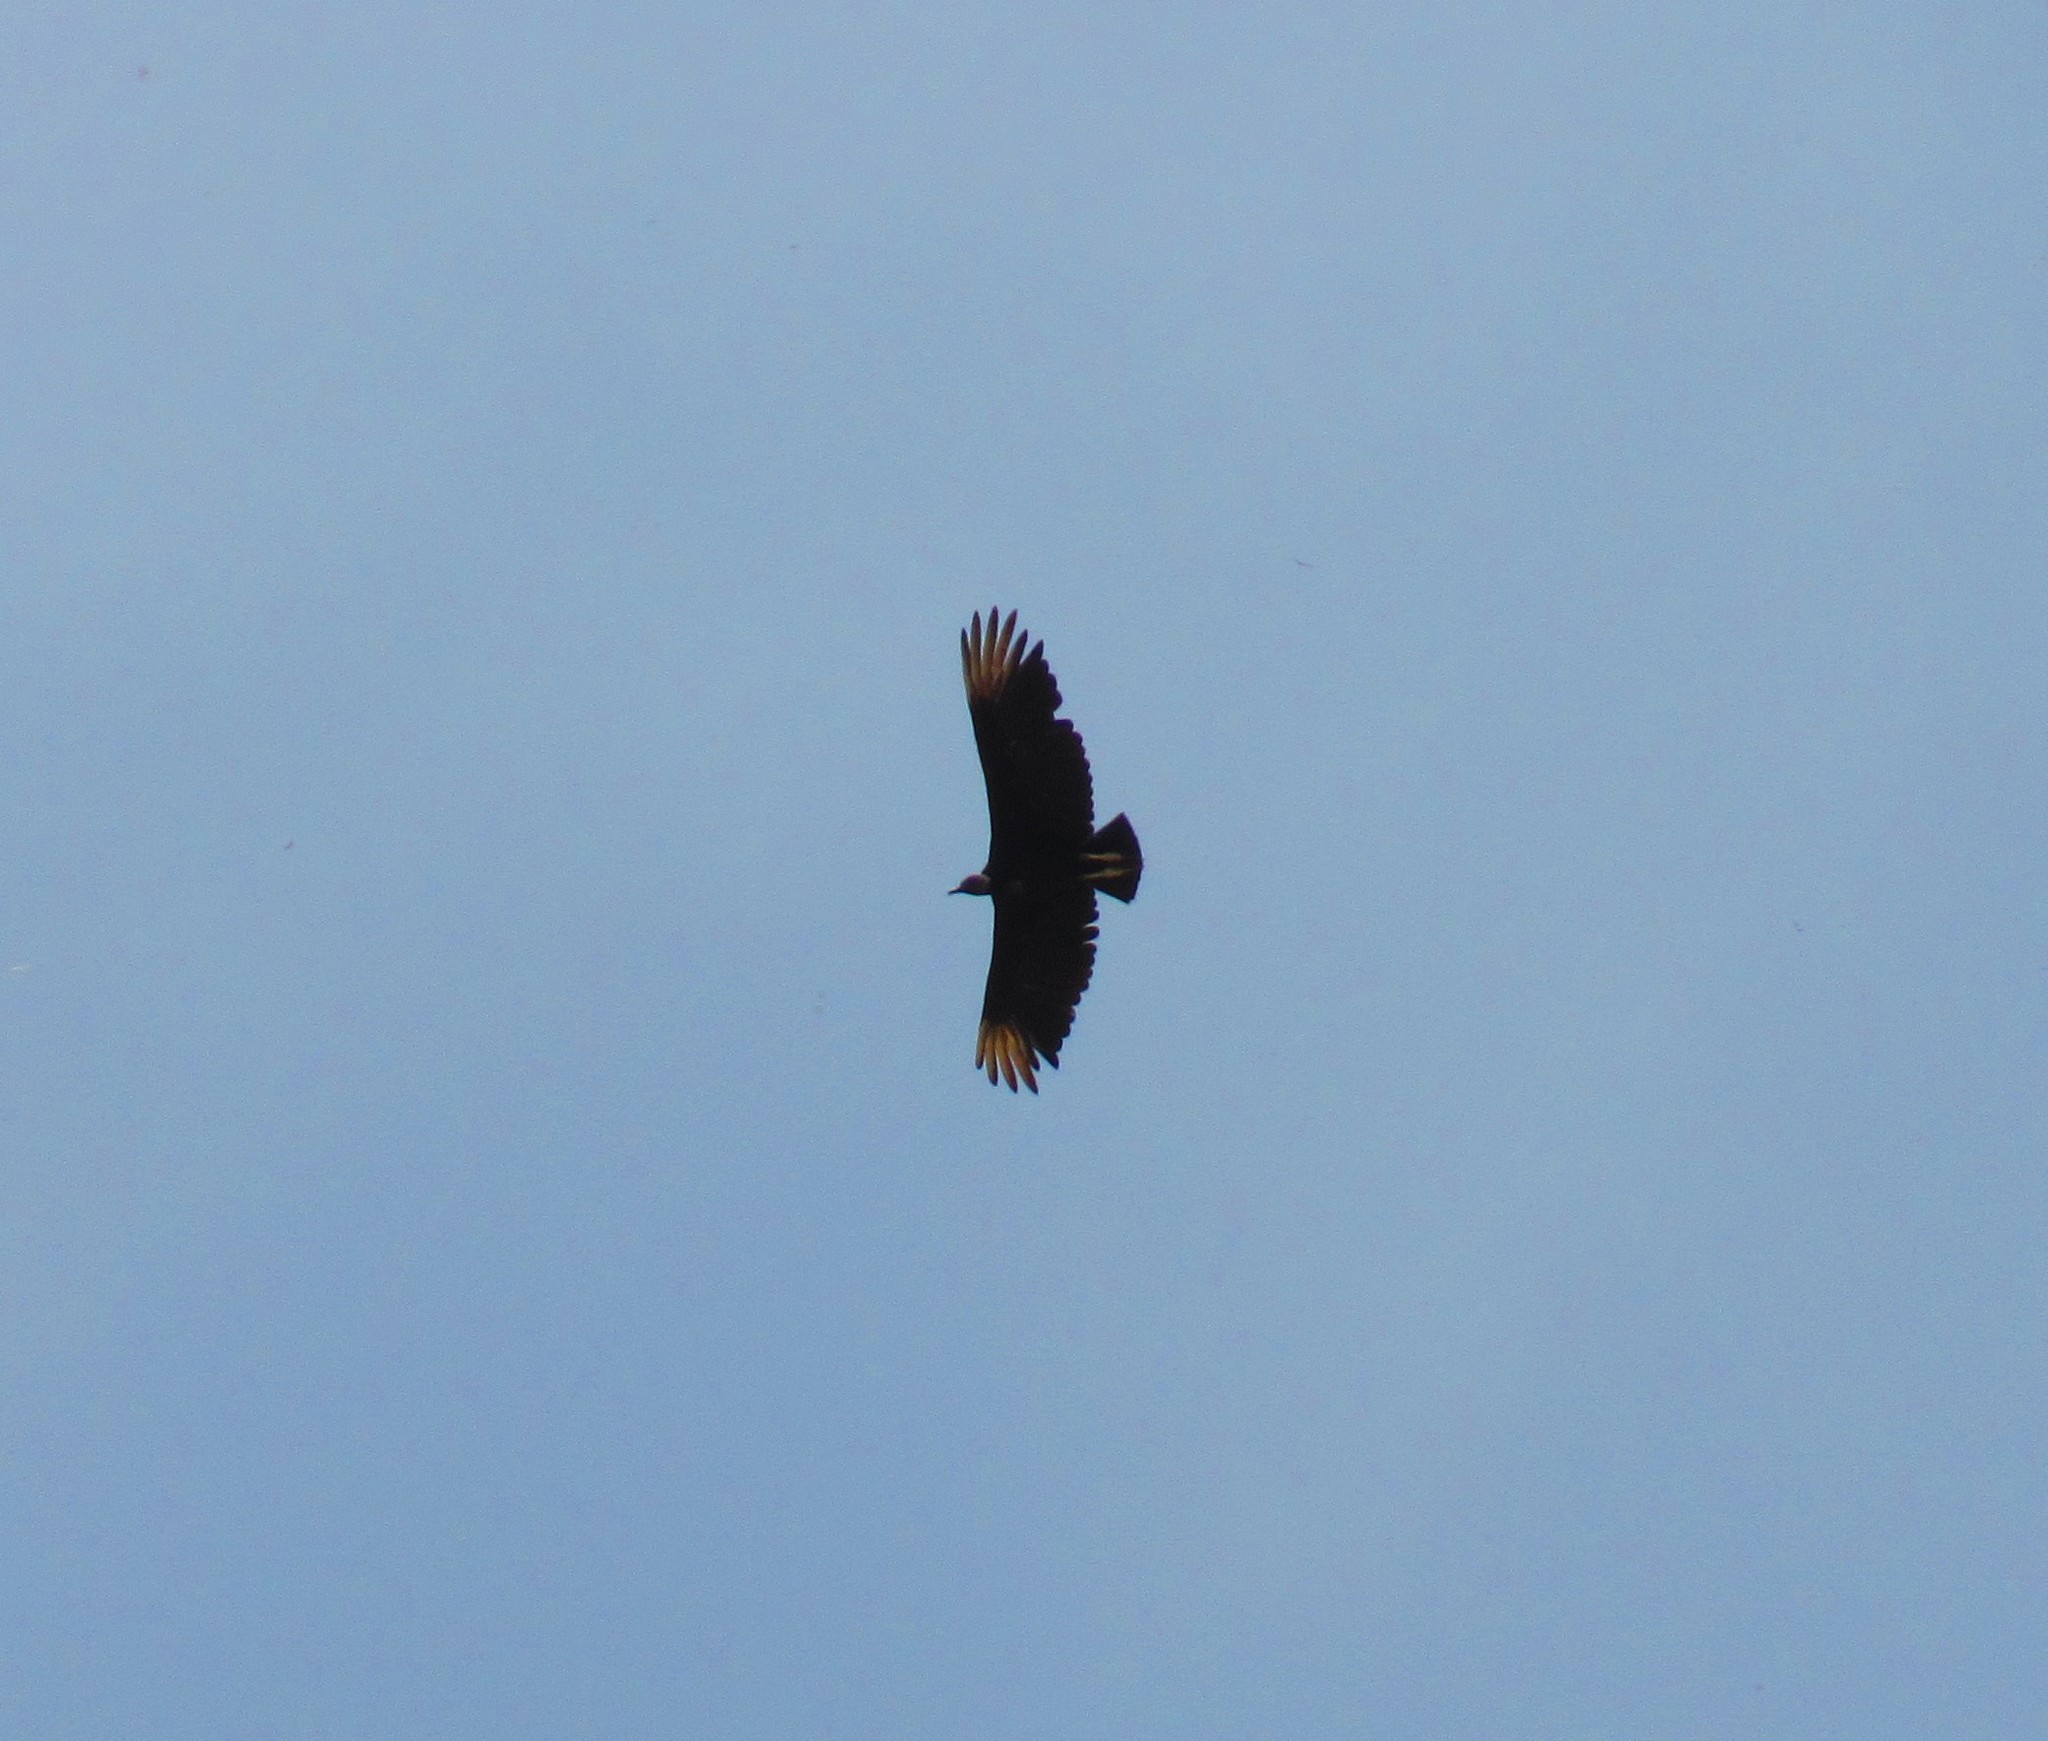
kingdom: Animalia
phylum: Chordata
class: Aves
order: Accipitriformes
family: Cathartidae
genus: Coragyps
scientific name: Coragyps atratus
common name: Black vulture
